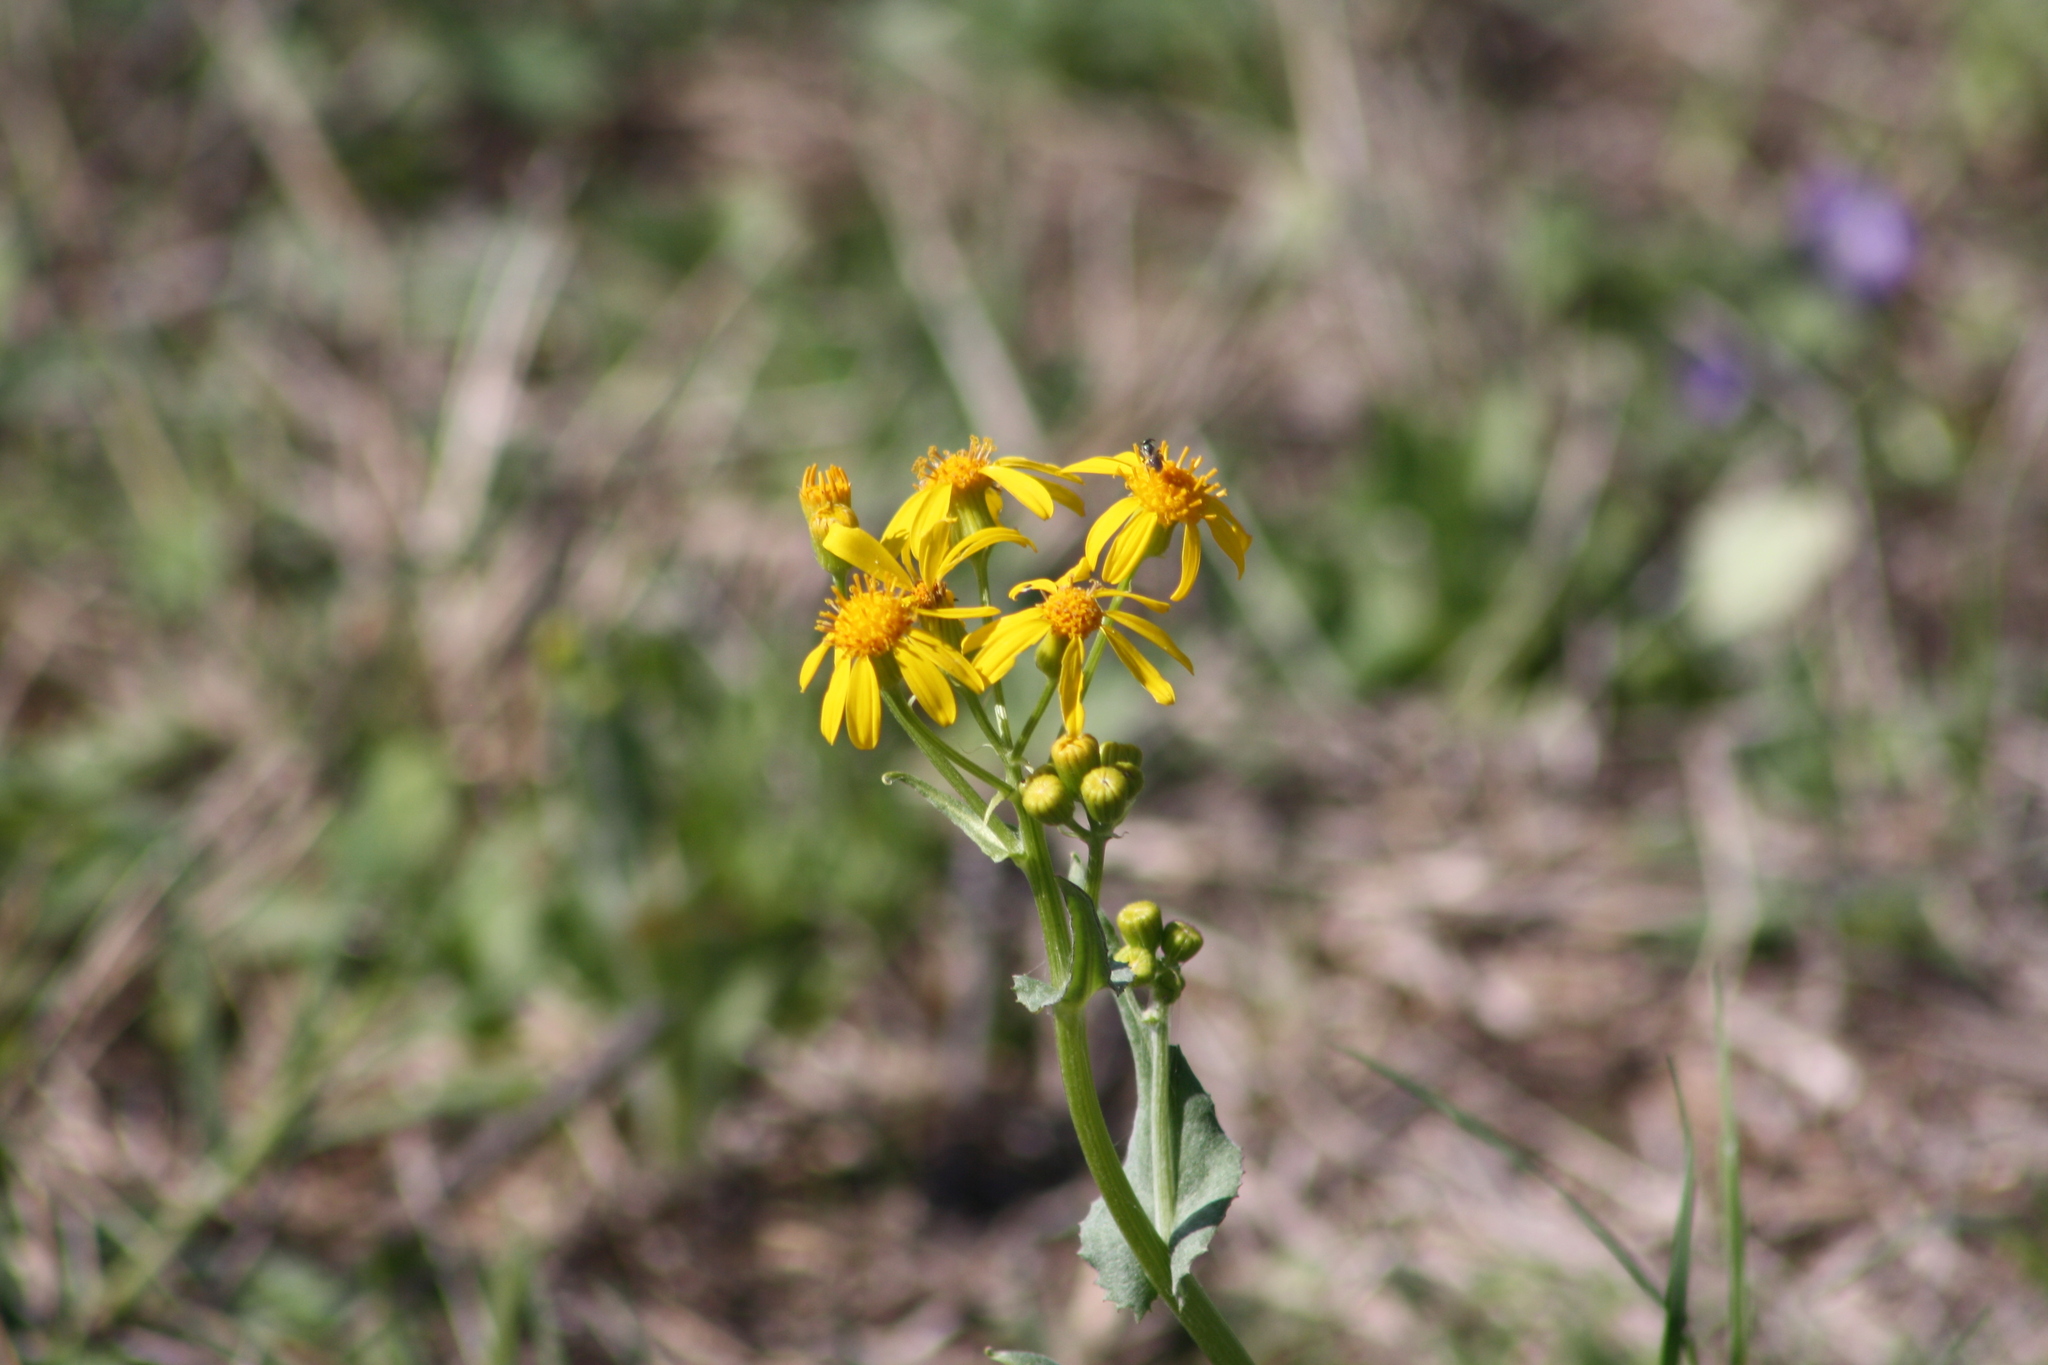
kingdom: Plantae
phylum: Tracheophyta
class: Magnoliopsida
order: Asterales
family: Asteraceae
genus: Senecio
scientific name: Senecio ampullaceus
